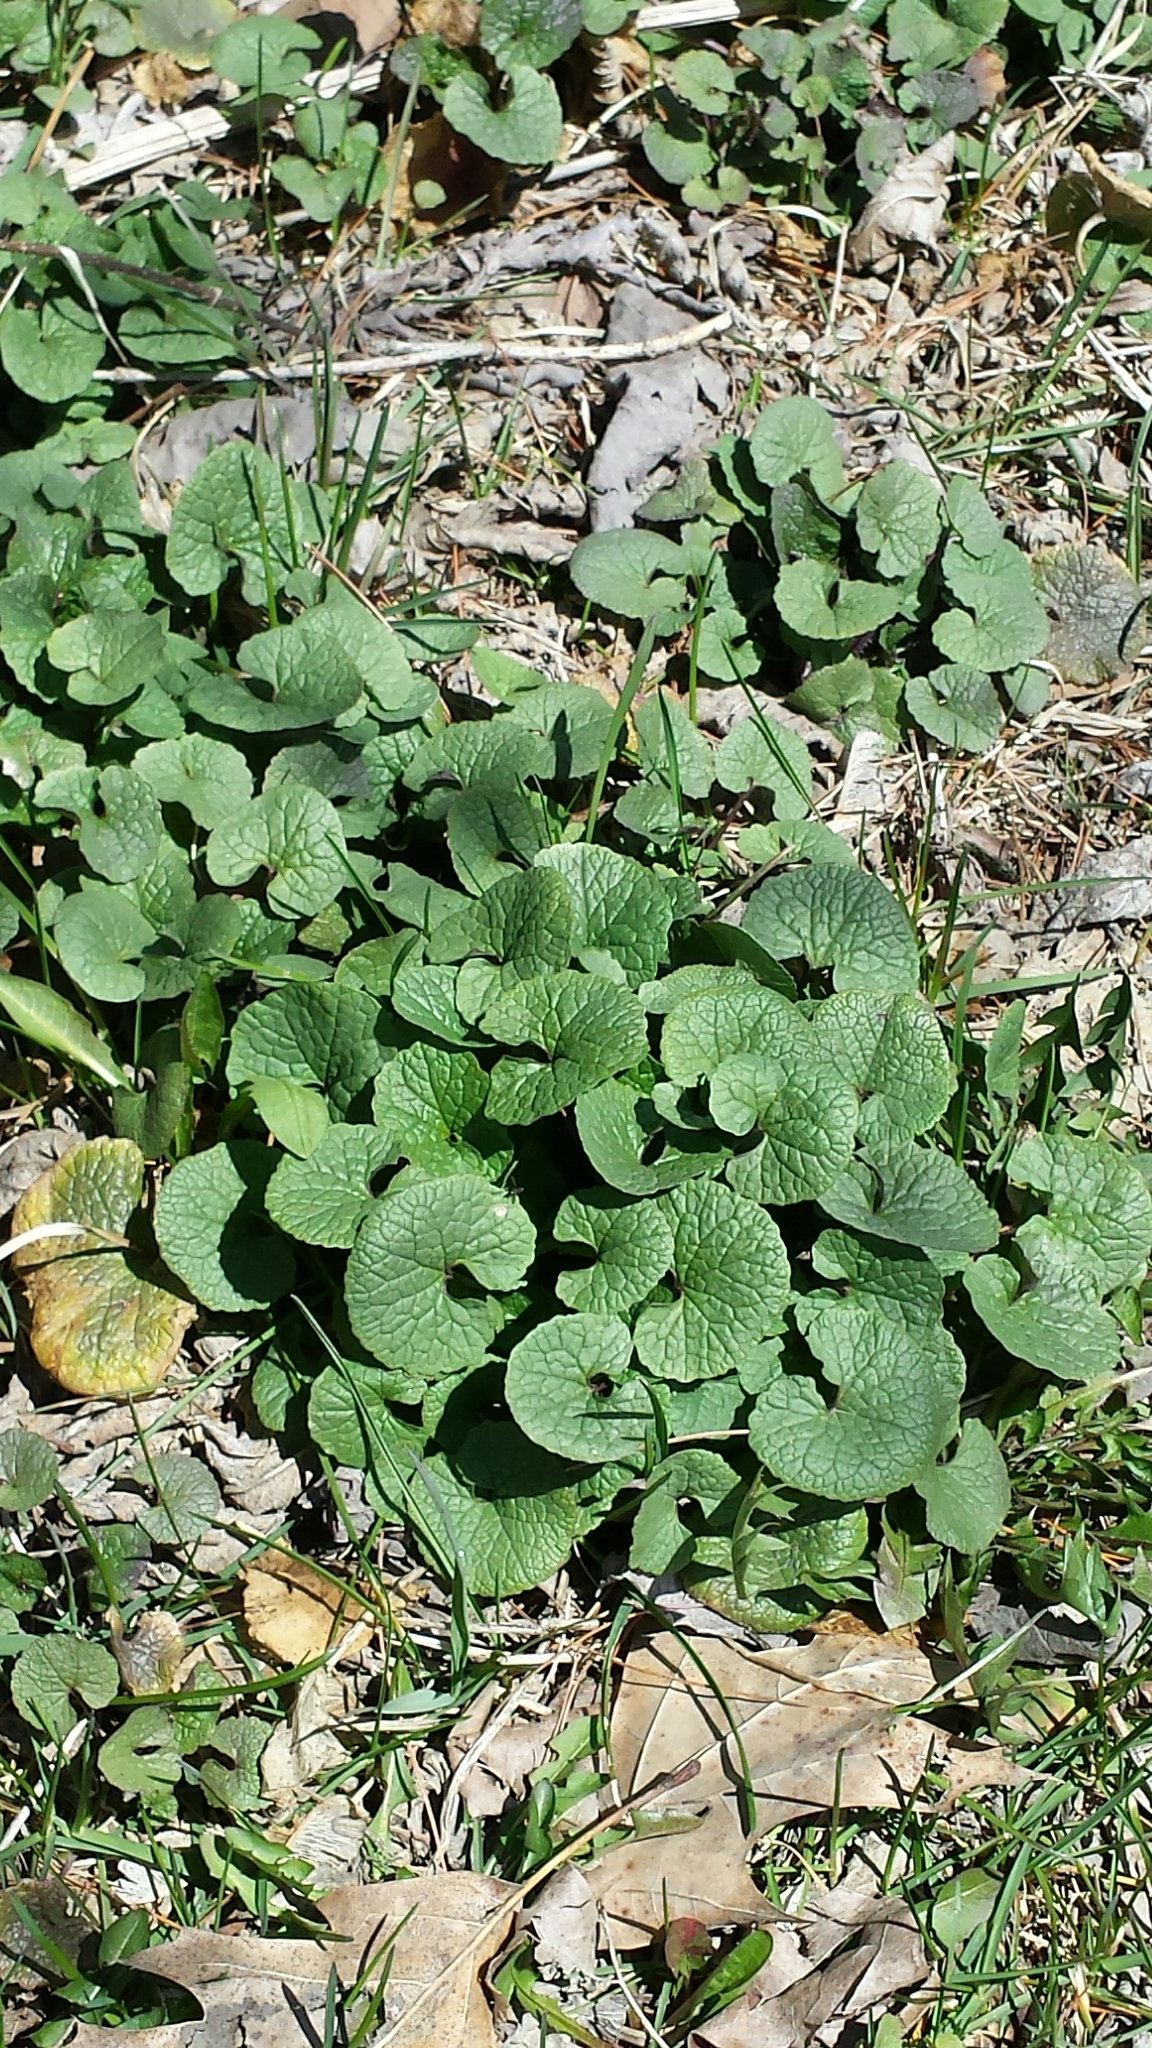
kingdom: Plantae
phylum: Tracheophyta
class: Magnoliopsida
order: Brassicales
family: Brassicaceae
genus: Alliaria
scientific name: Alliaria petiolata
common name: Garlic mustard
